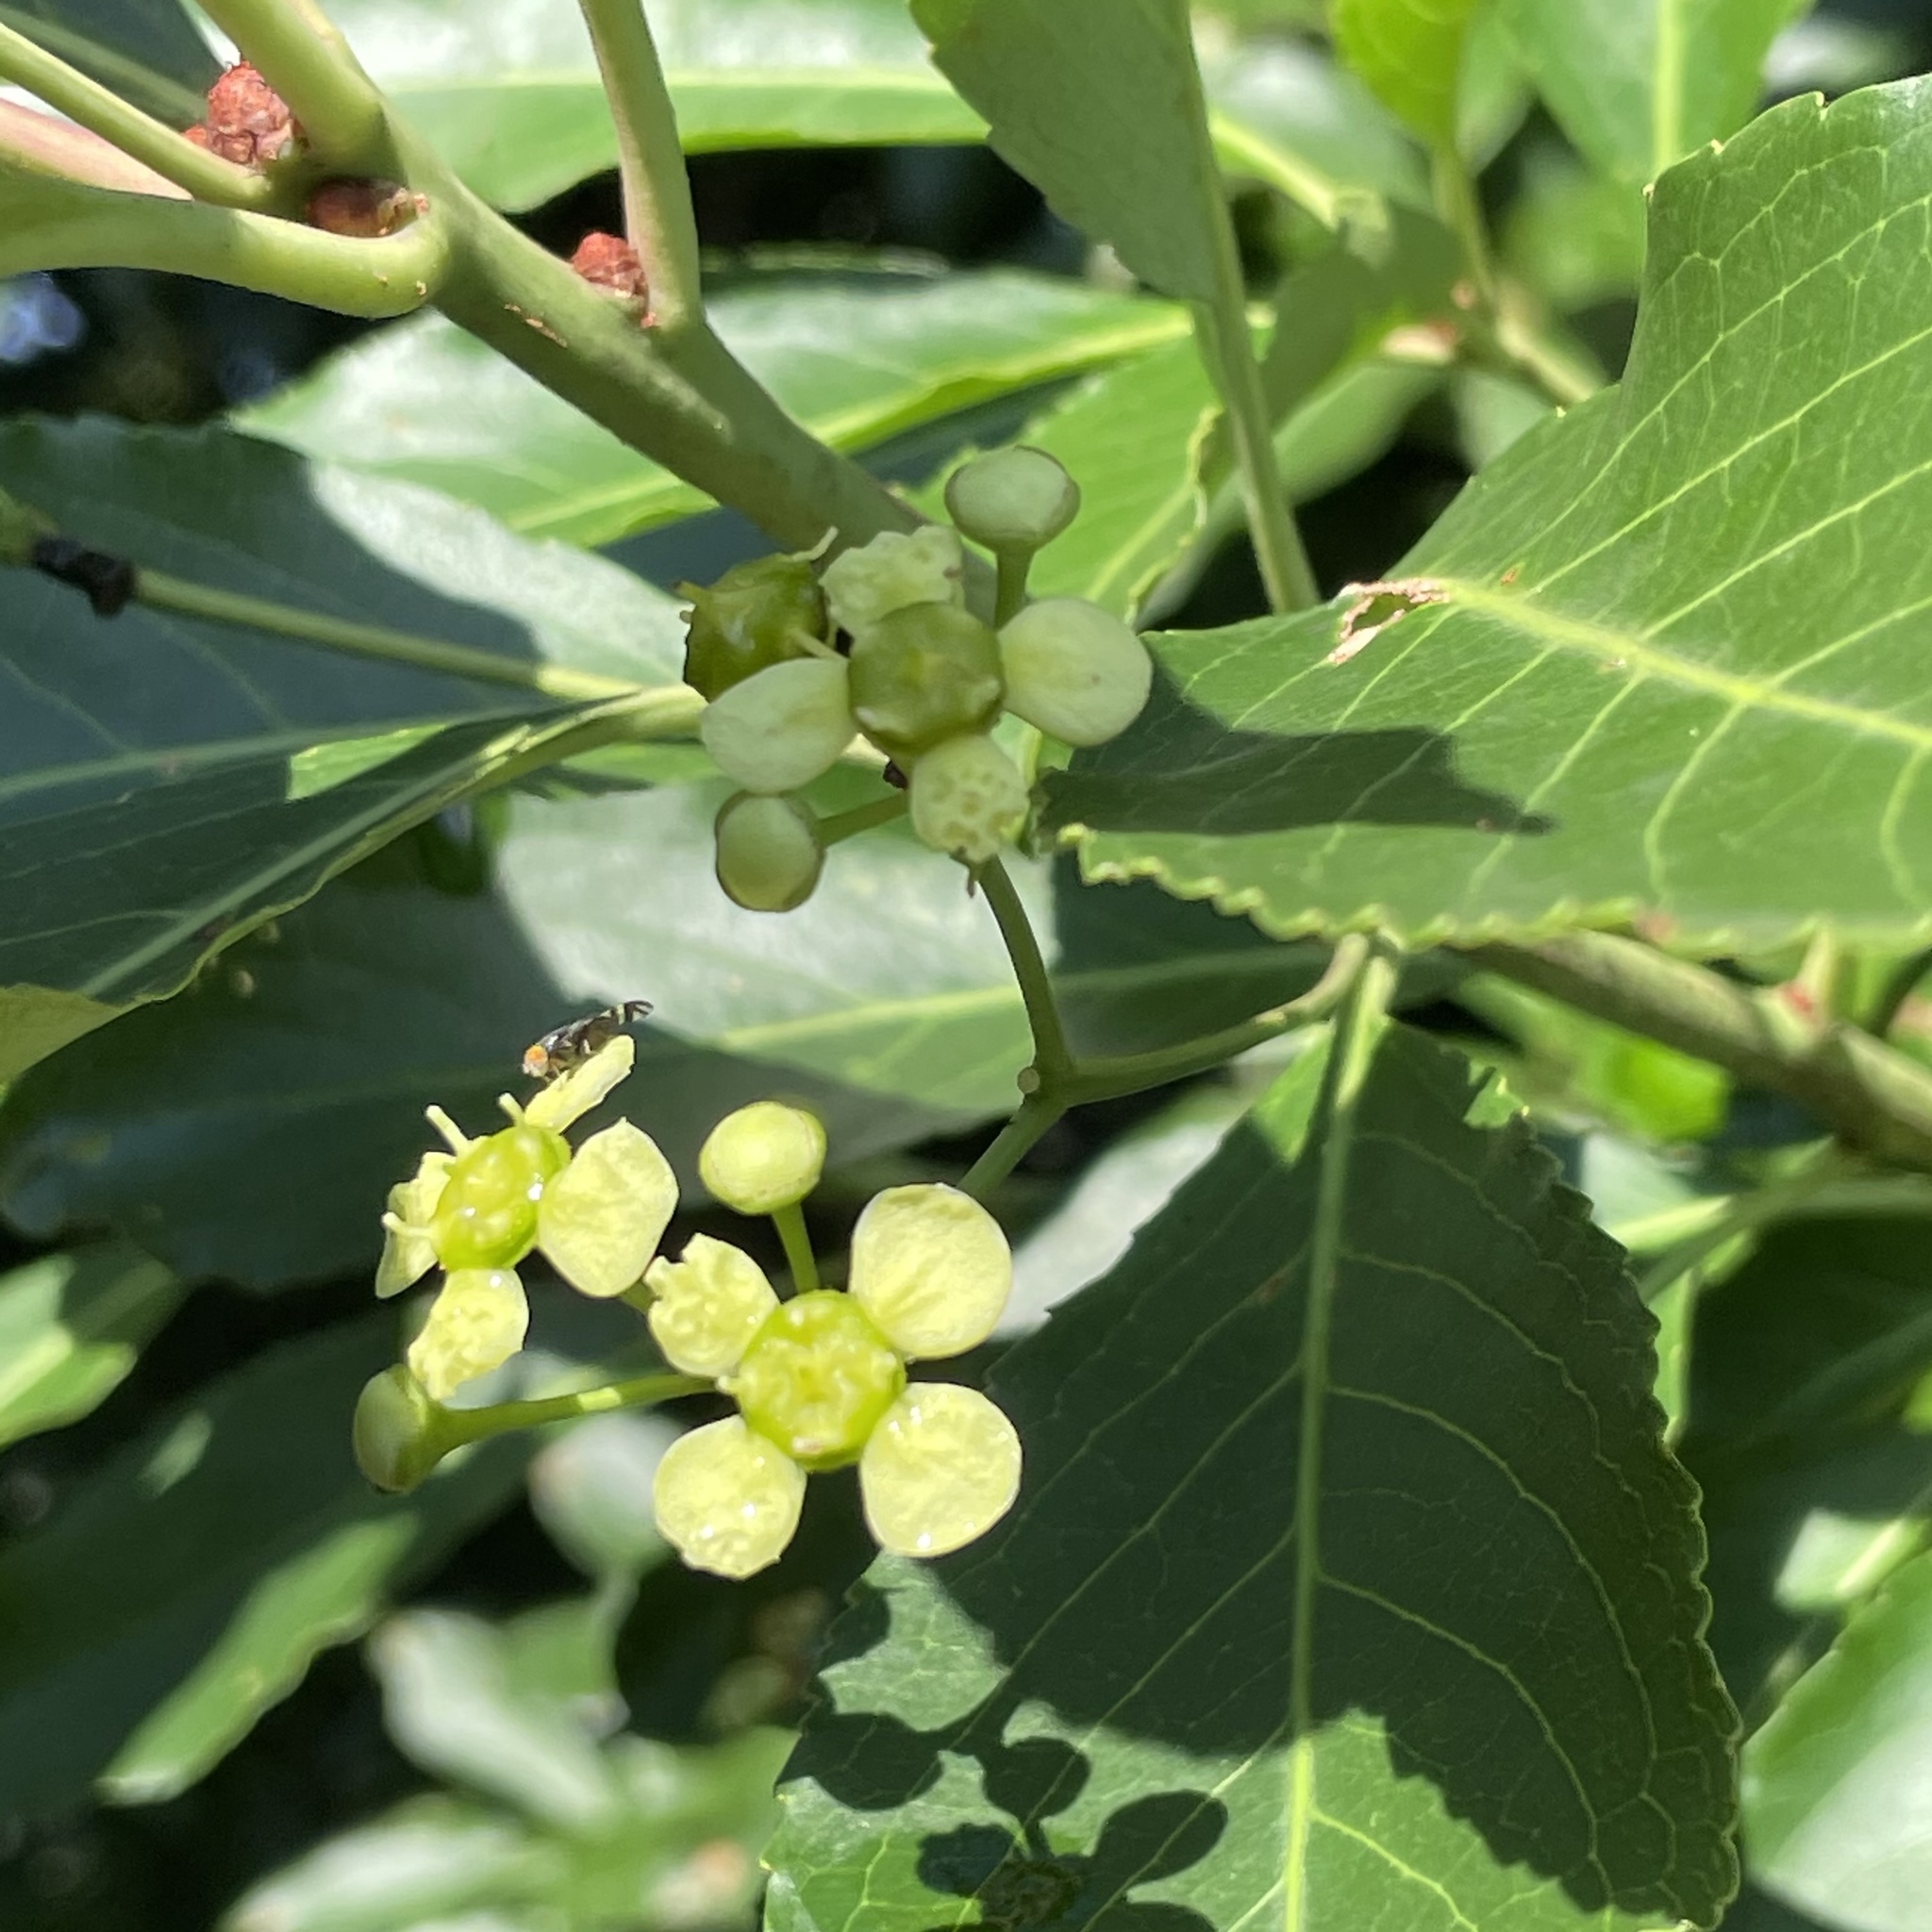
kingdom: Plantae
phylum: Tracheophyta
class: Magnoliopsida
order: Celastrales
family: Celastraceae
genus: Euonymus
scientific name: Euonymus carnosus
